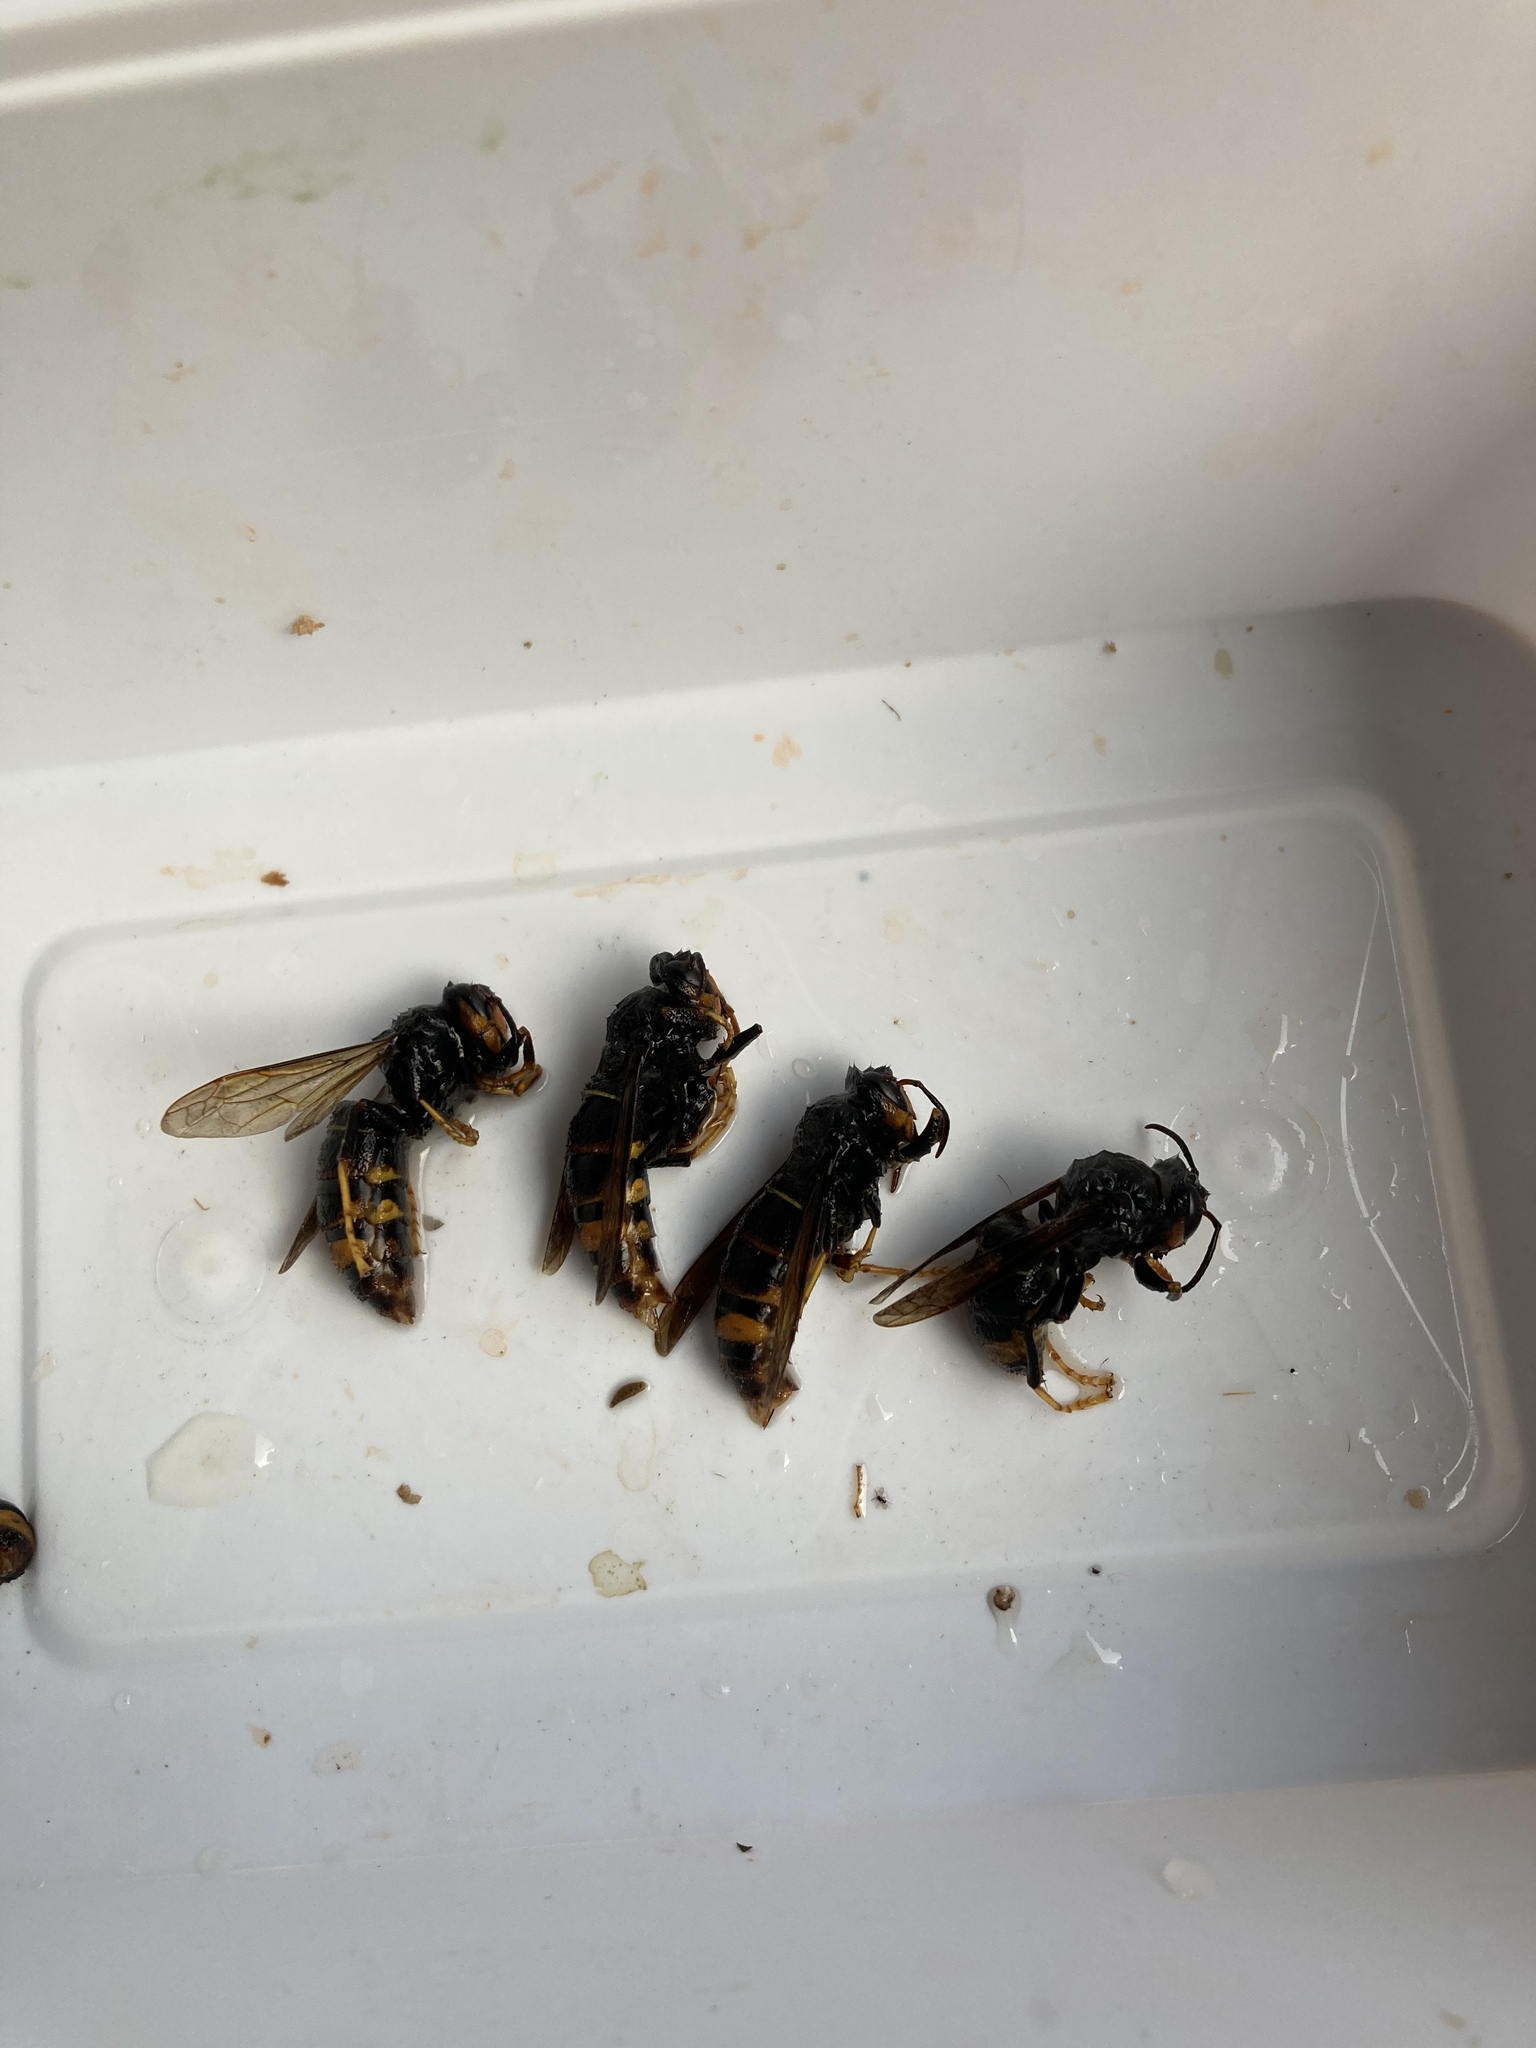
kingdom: Animalia
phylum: Arthropoda
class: Insecta
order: Hymenoptera
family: Vespidae
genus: Vespa
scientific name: Vespa velutina
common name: Asian hornet
